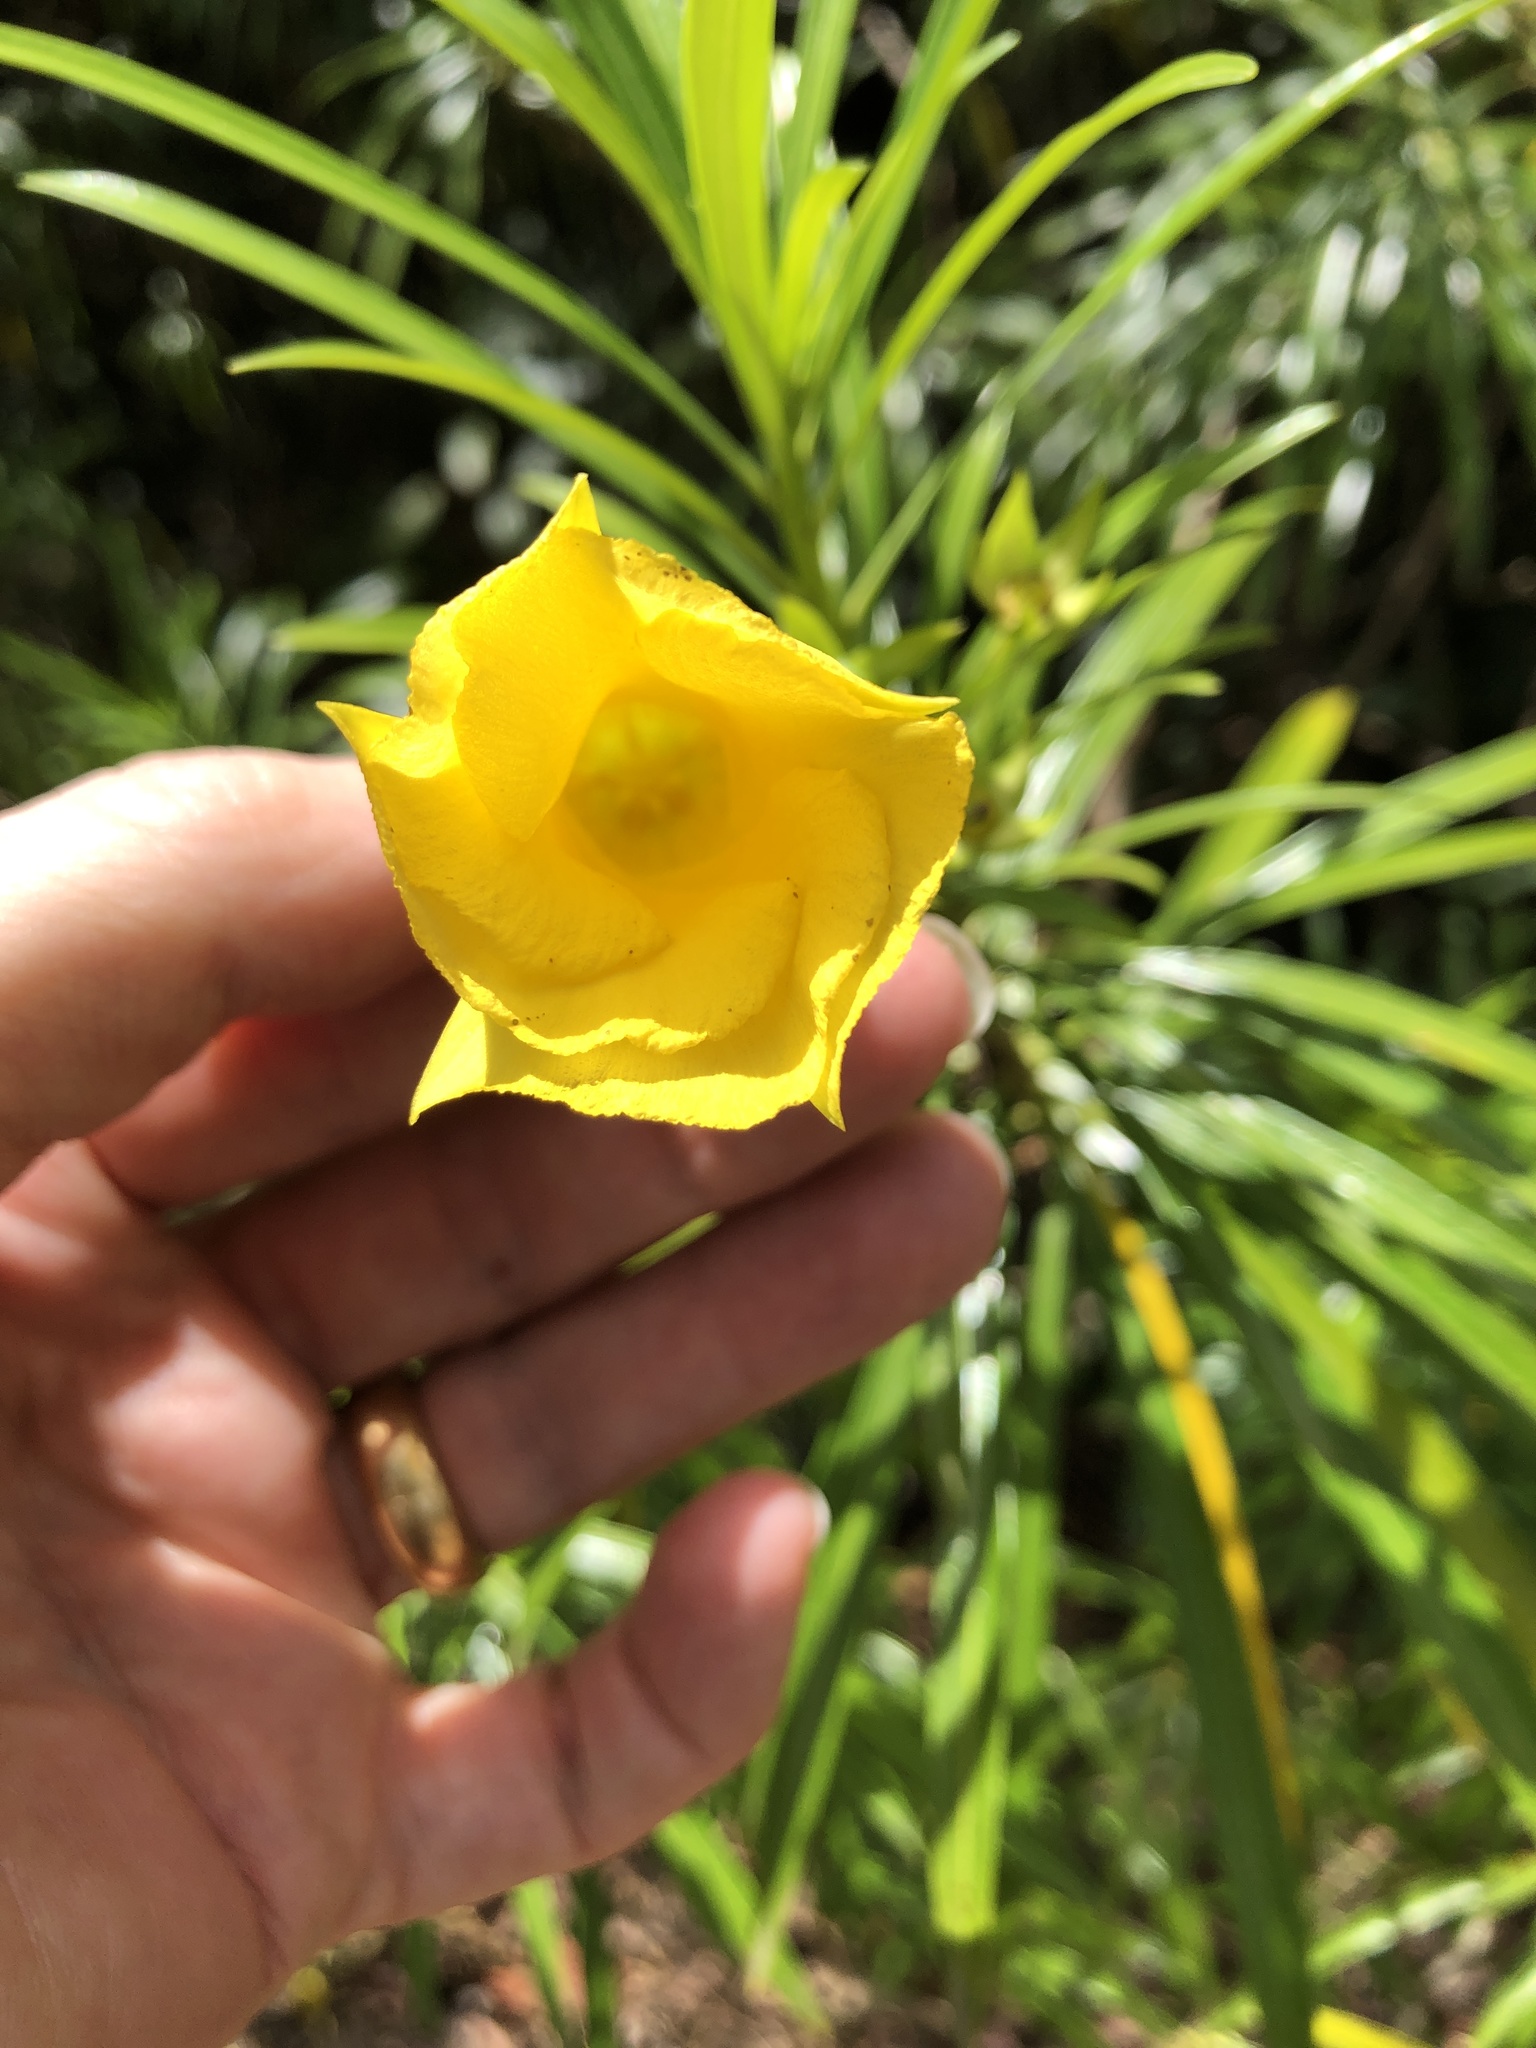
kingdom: Plantae
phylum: Tracheophyta
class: Magnoliopsida
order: Gentianales
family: Apocynaceae
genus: Cascabela
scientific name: Cascabela thevetia
